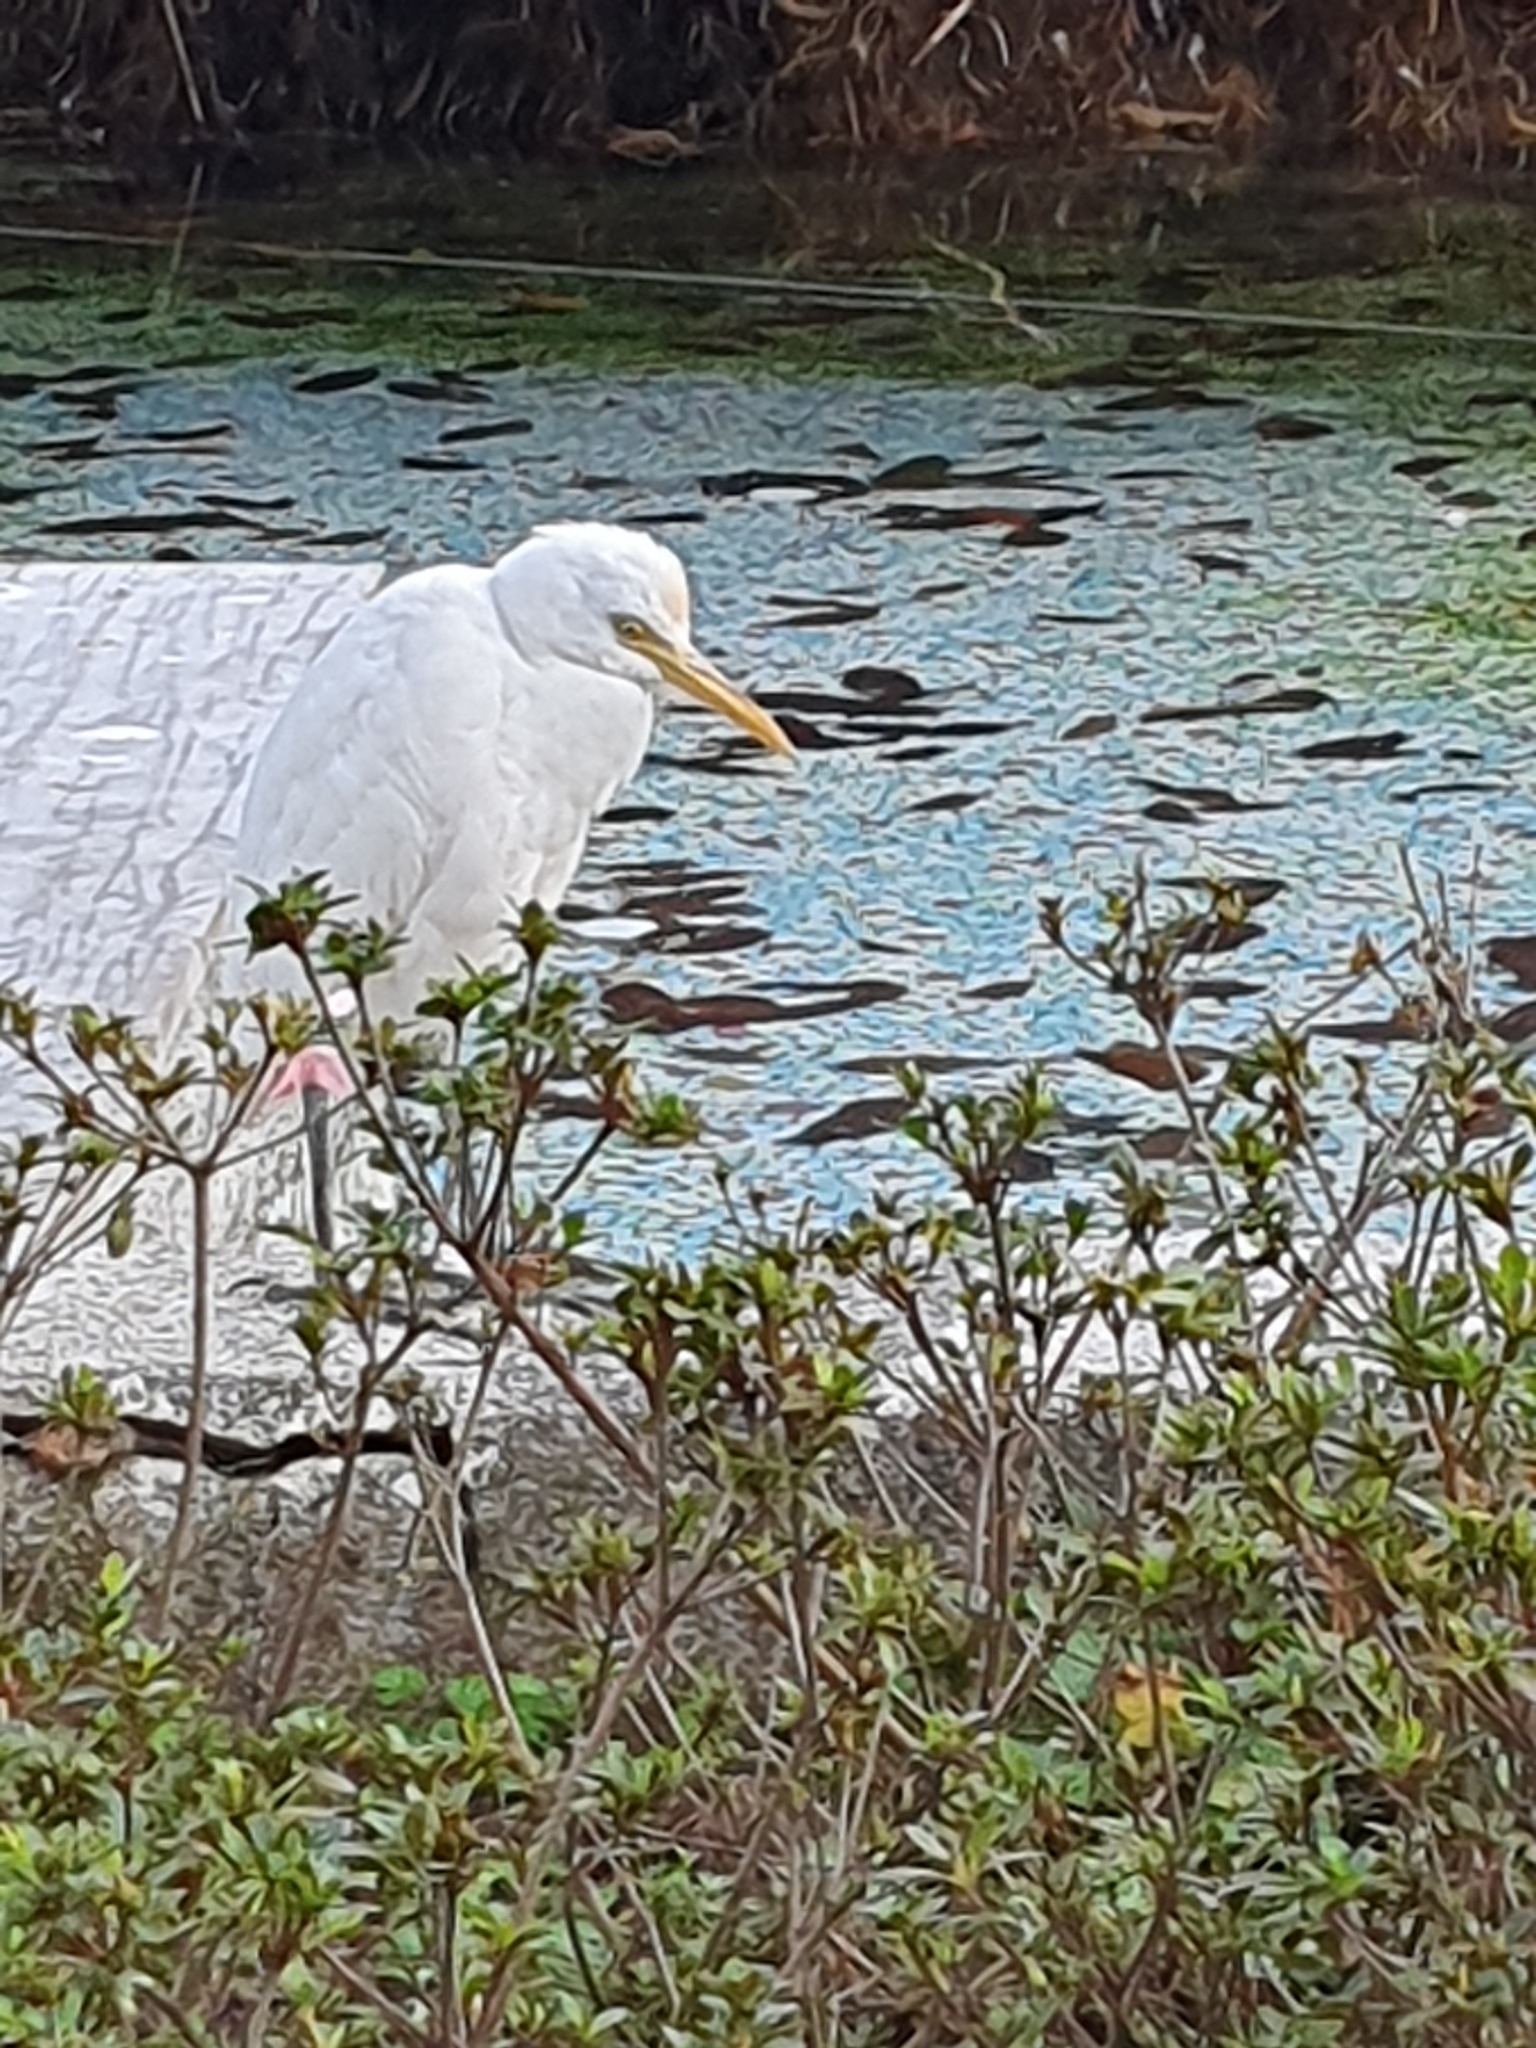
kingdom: Animalia
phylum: Chordata
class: Aves
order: Pelecaniformes
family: Ardeidae
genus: Bubulcus
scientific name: Bubulcus coromandus
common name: Eastern cattle egret
